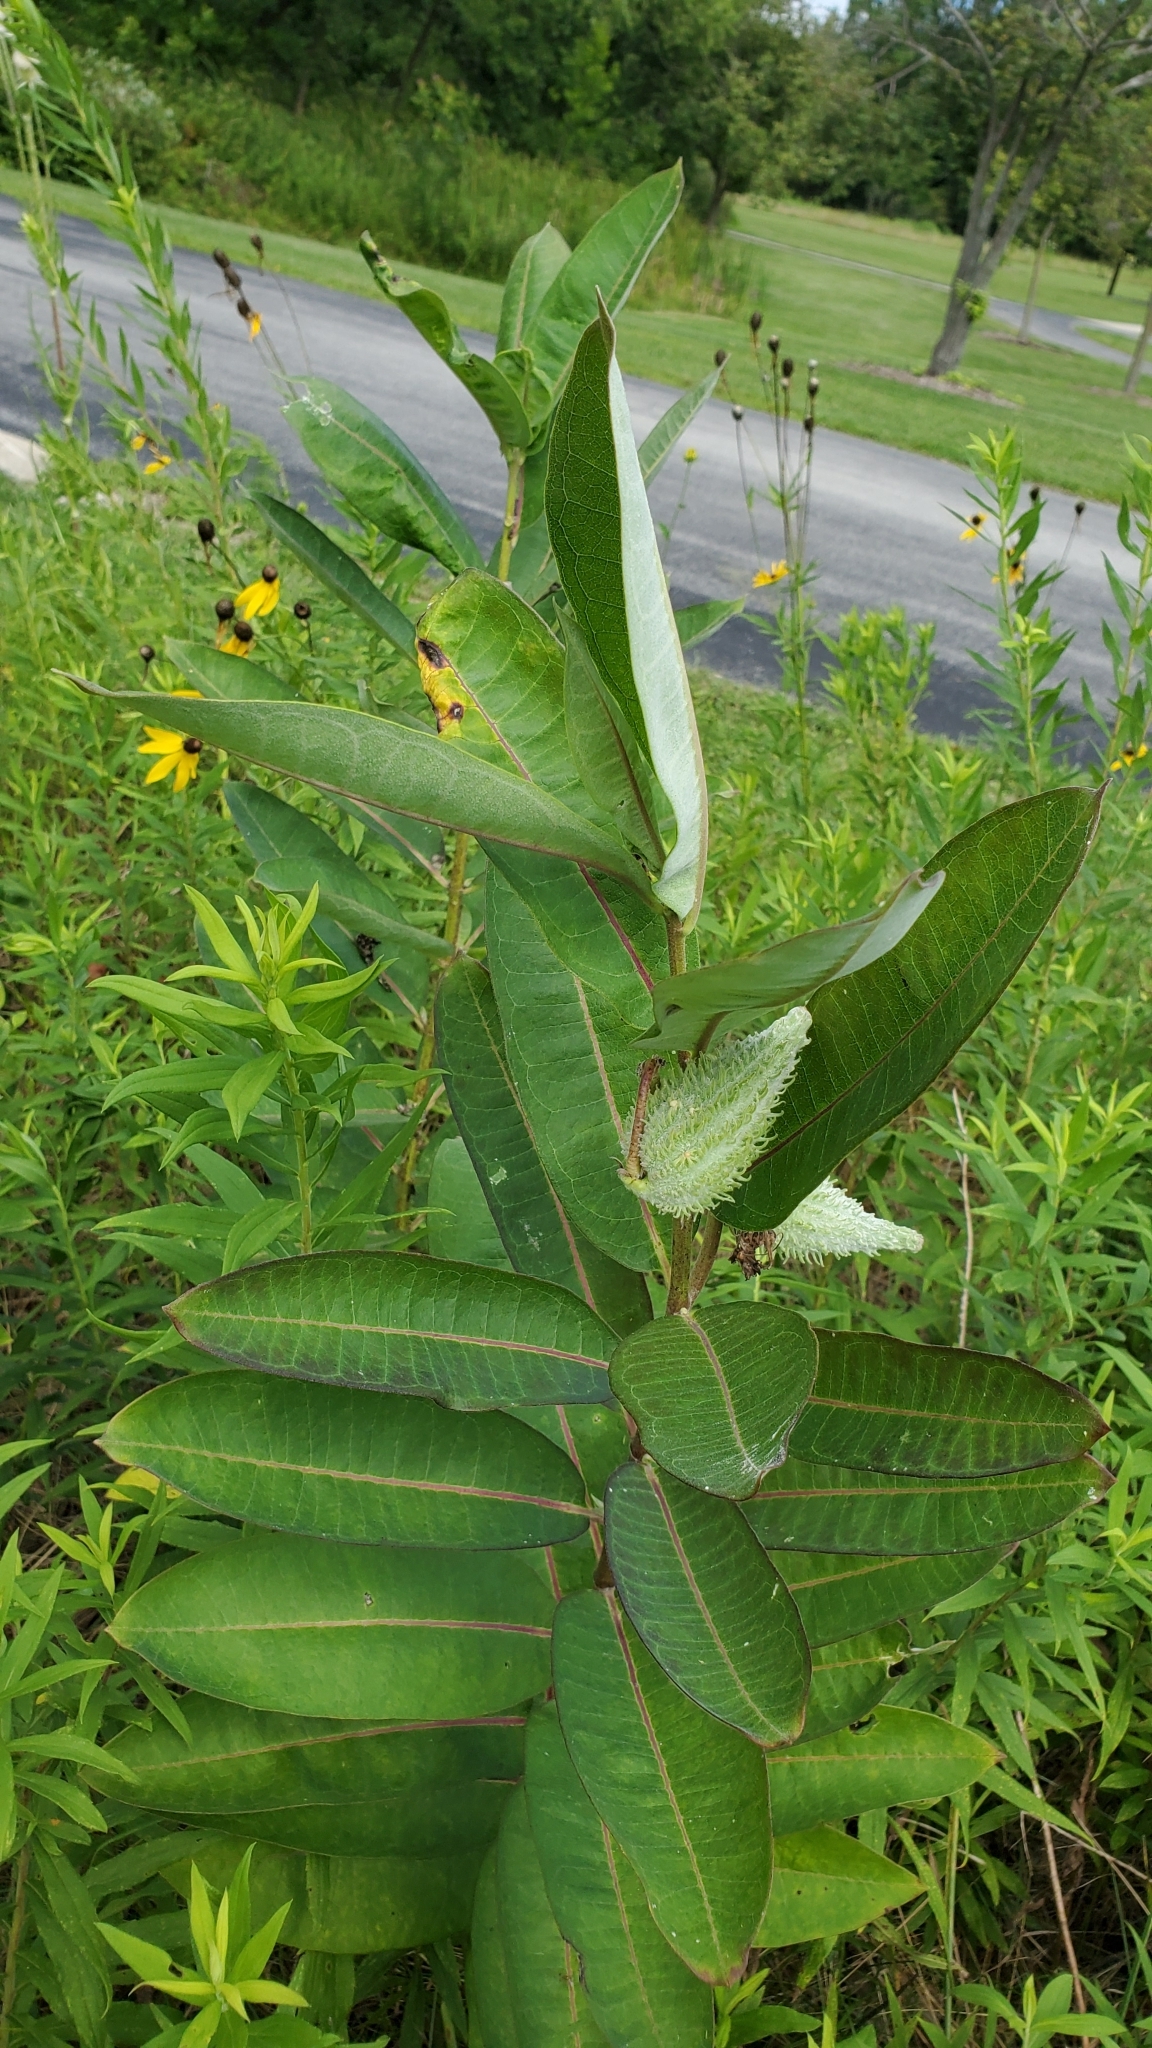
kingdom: Plantae
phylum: Tracheophyta
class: Magnoliopsida
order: Gentianales
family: Apocynaceae
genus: Asclepias
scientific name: Asclepias syriaca
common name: Common milkweed
